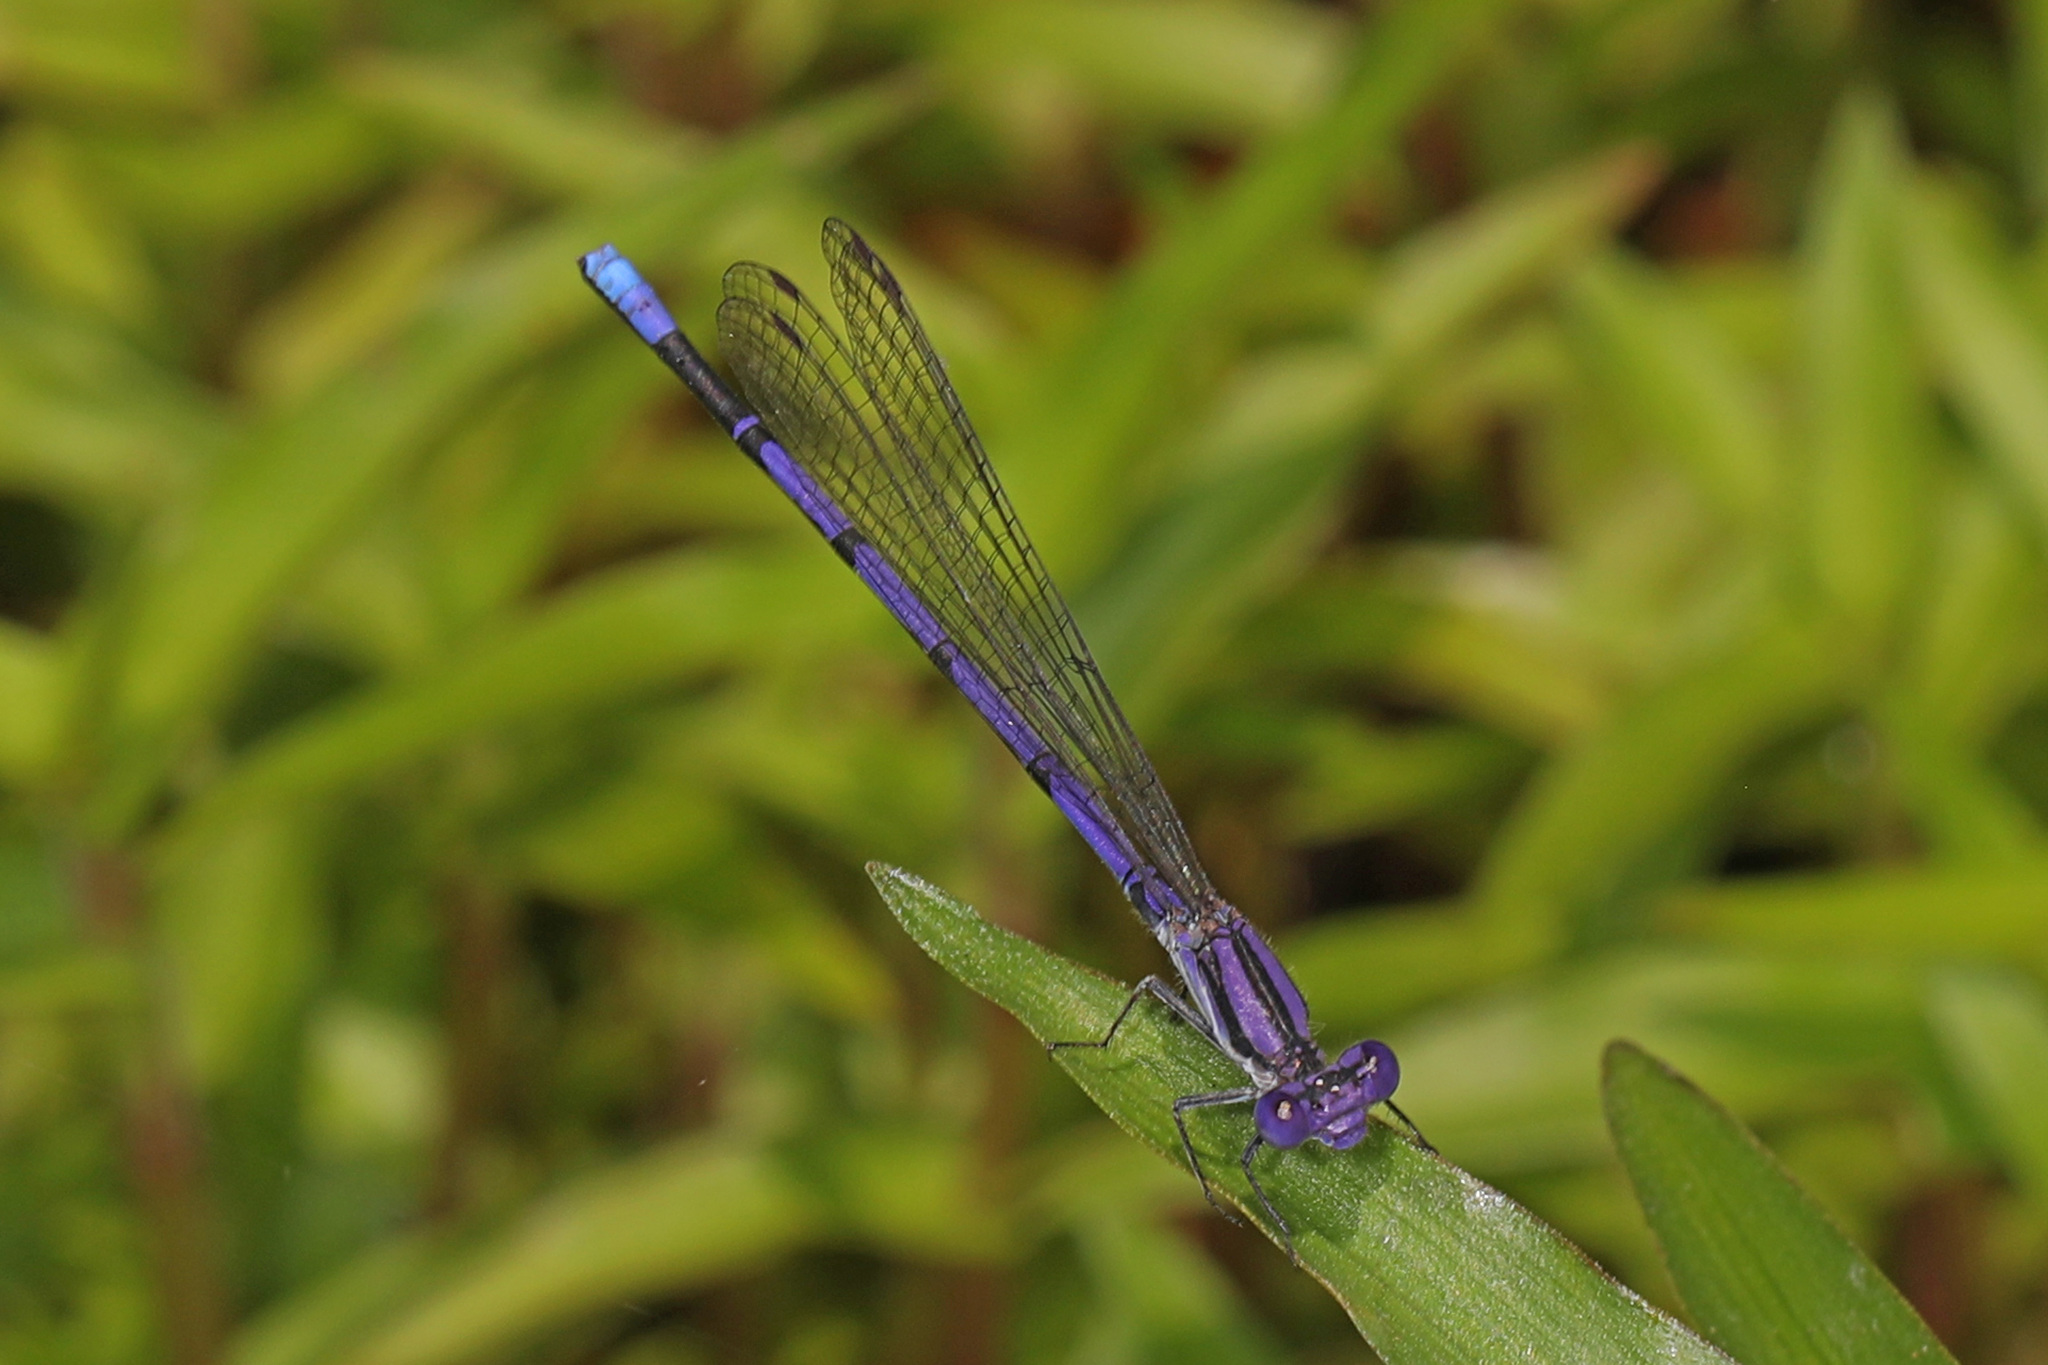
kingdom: Animalia
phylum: Arthropoda
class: Insecta
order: Odonata
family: Coenagrionidae
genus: Argia
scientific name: Argia fumipennis
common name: Variable dancer
